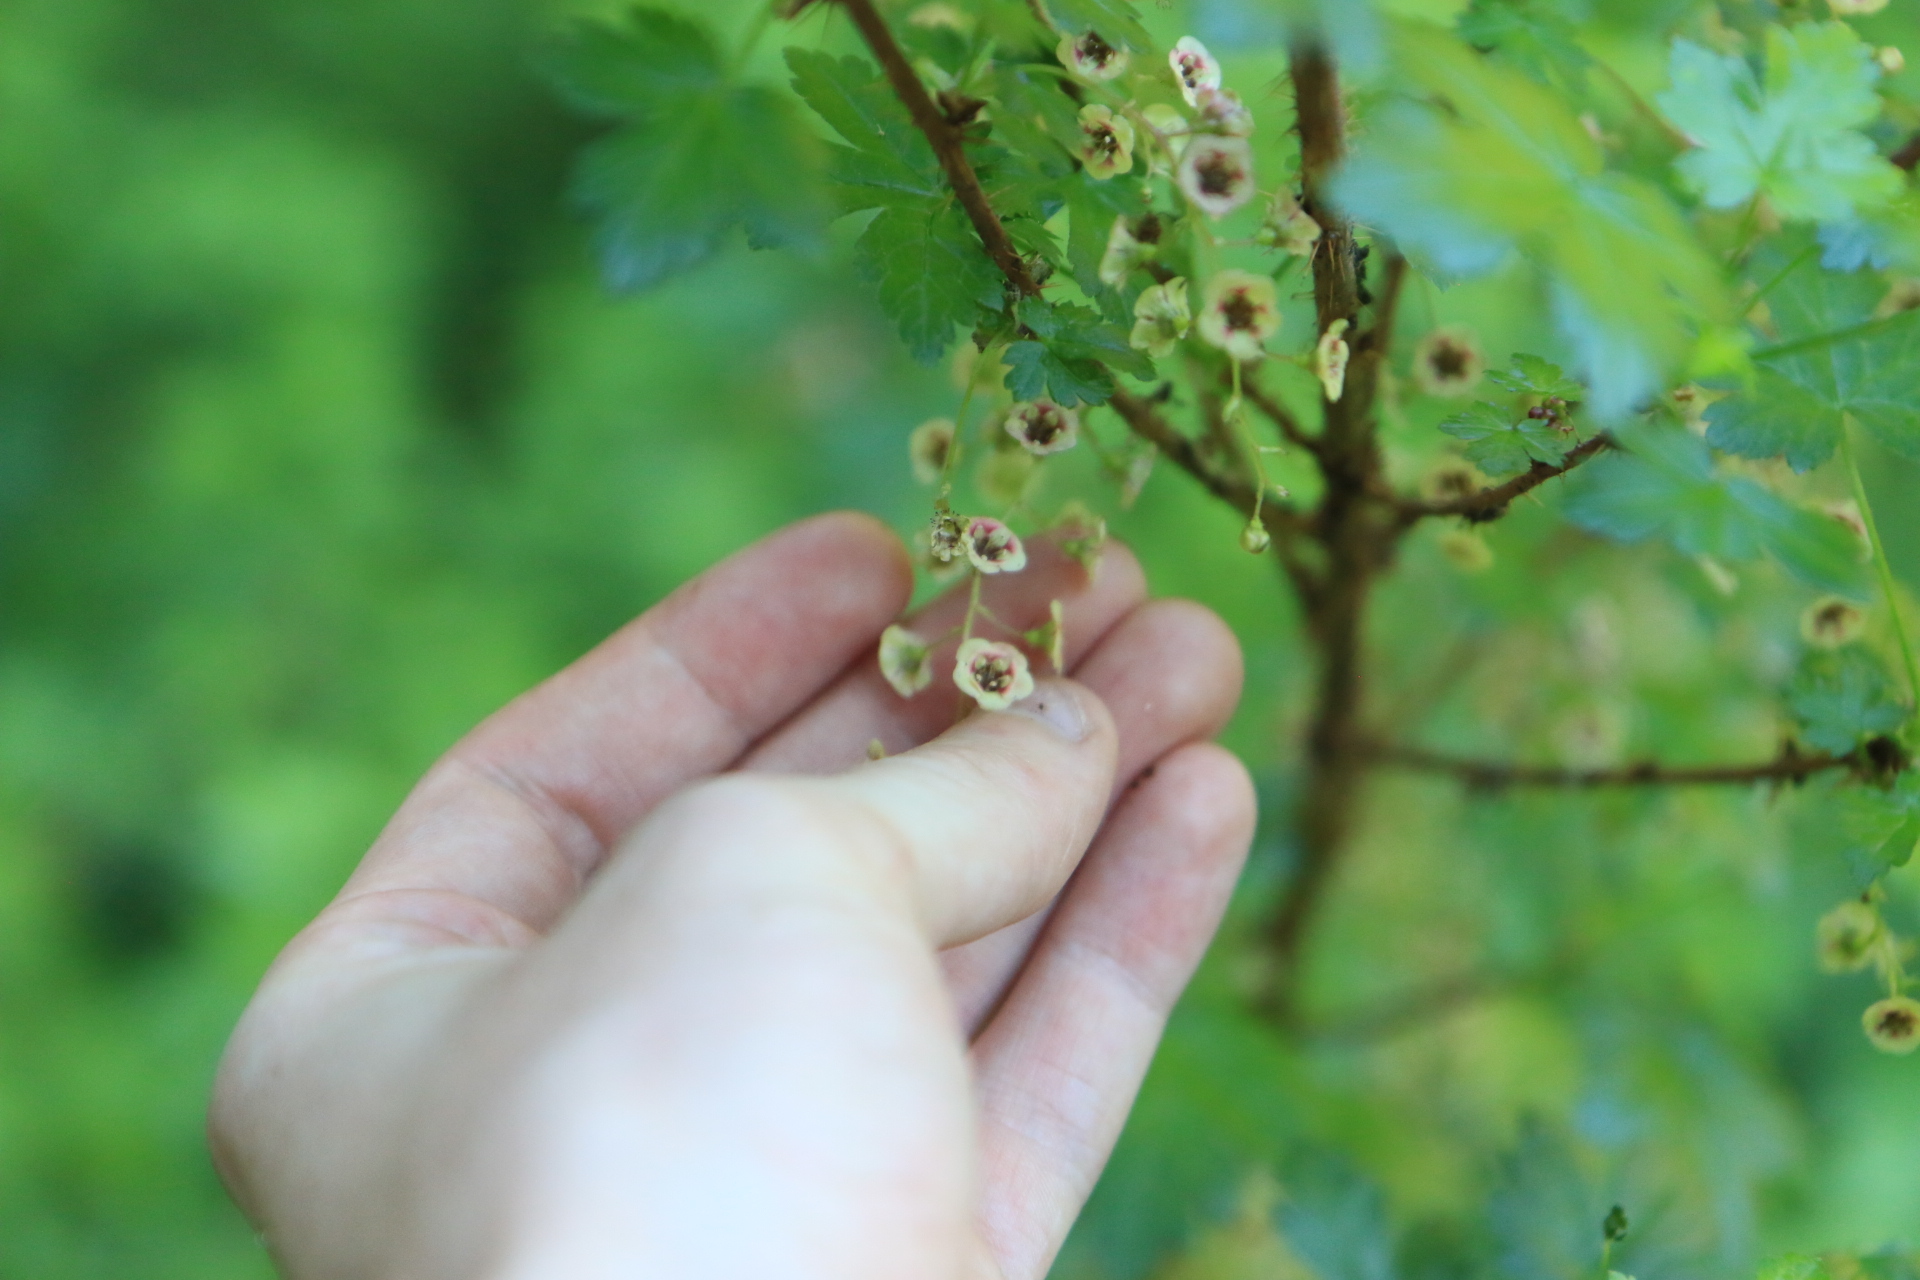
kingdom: Plantae
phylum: Tracheophyta
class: Magnoliopsida
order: Saxifragales
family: Grossulariaceae
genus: Ribes
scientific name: Ribes lacustre
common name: Black gooseberry
